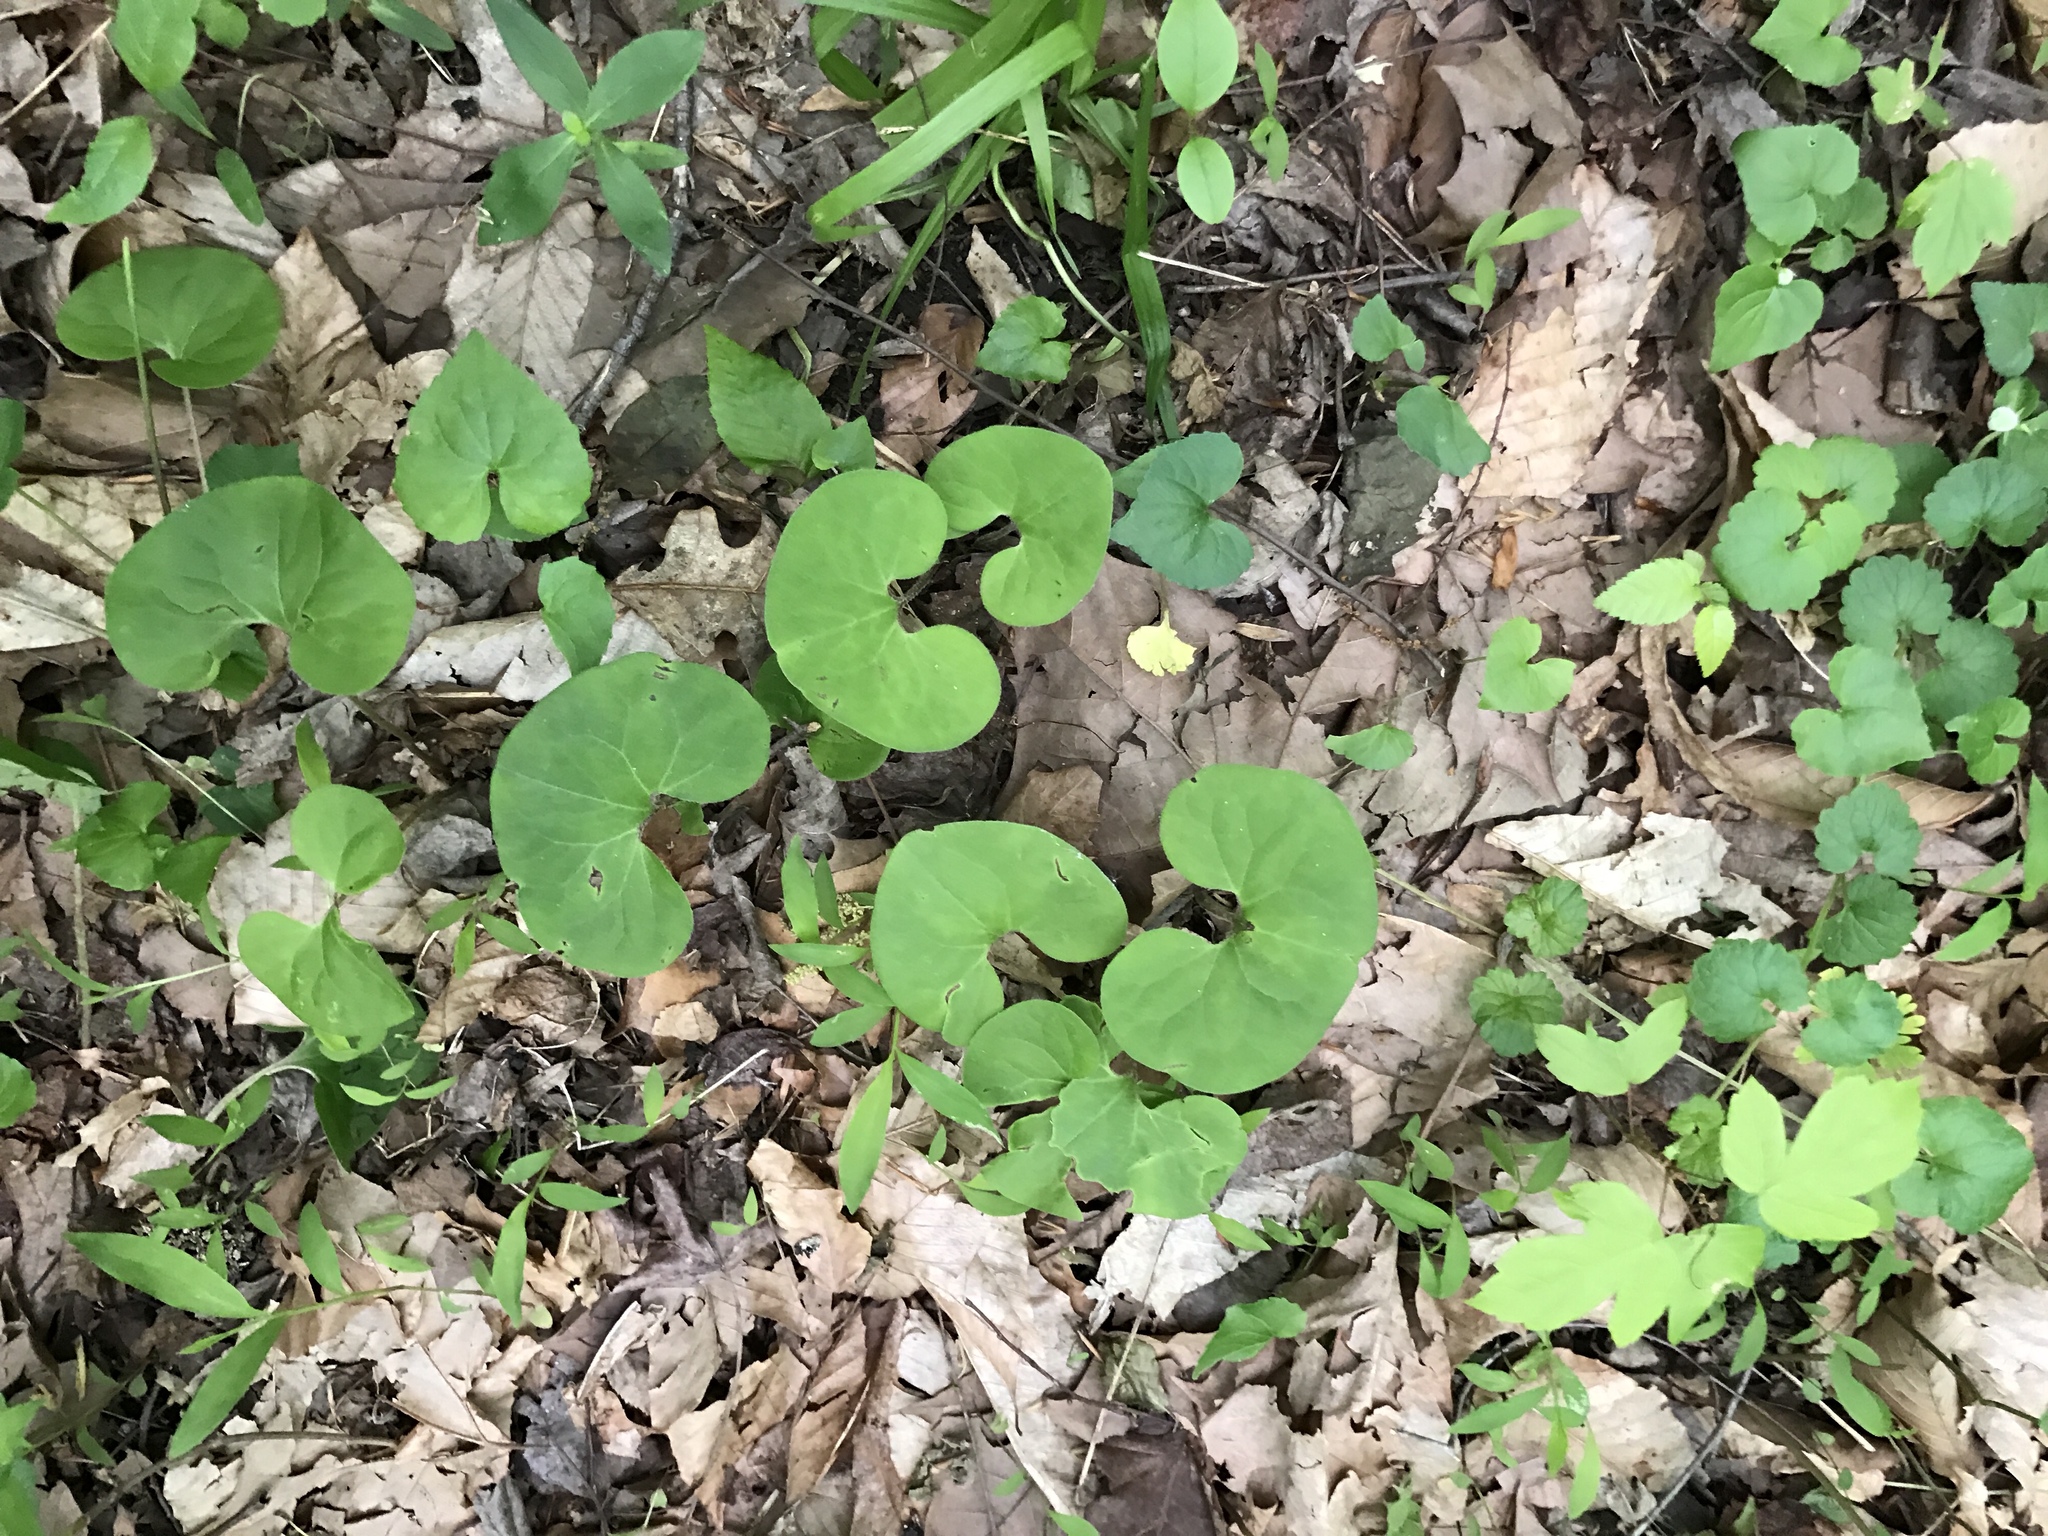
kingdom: Plantae
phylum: Tracheophyta
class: Magnoliopsida
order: Piperales
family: Aristolochiaceae
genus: Asarum
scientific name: Asarum canadense
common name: Wild ginger
